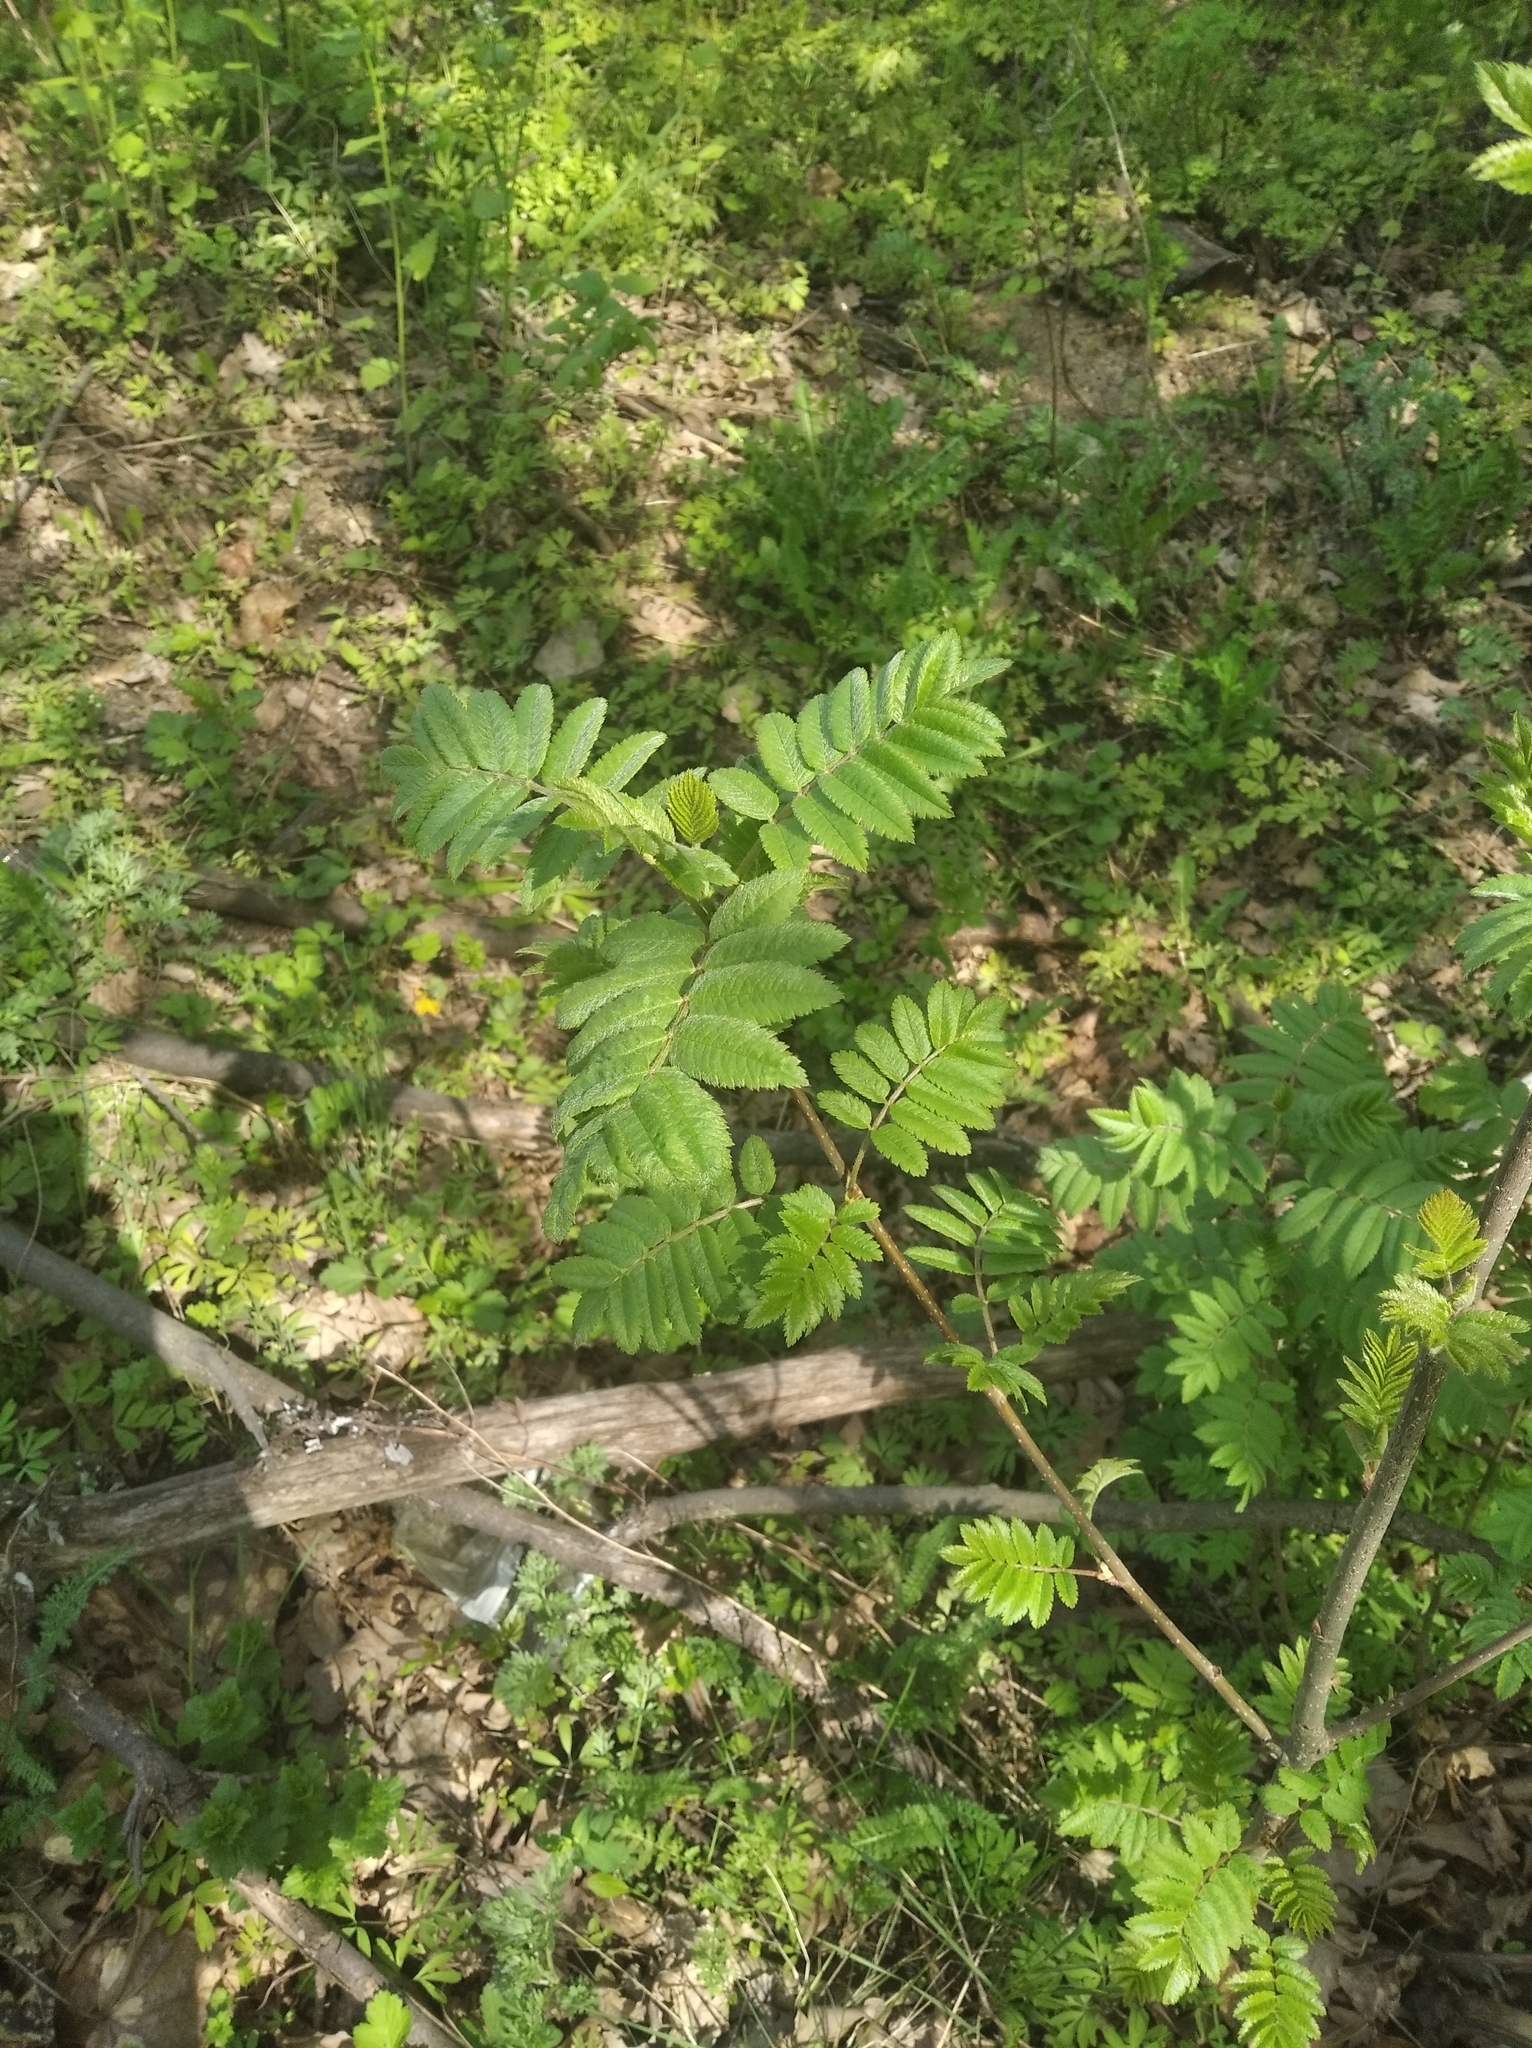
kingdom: Plantae
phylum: Tracheophyta
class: Magnoliopsida
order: Rosales
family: Rosaceae
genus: Sorbus
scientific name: Sorbus aucuparia
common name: Rowan
